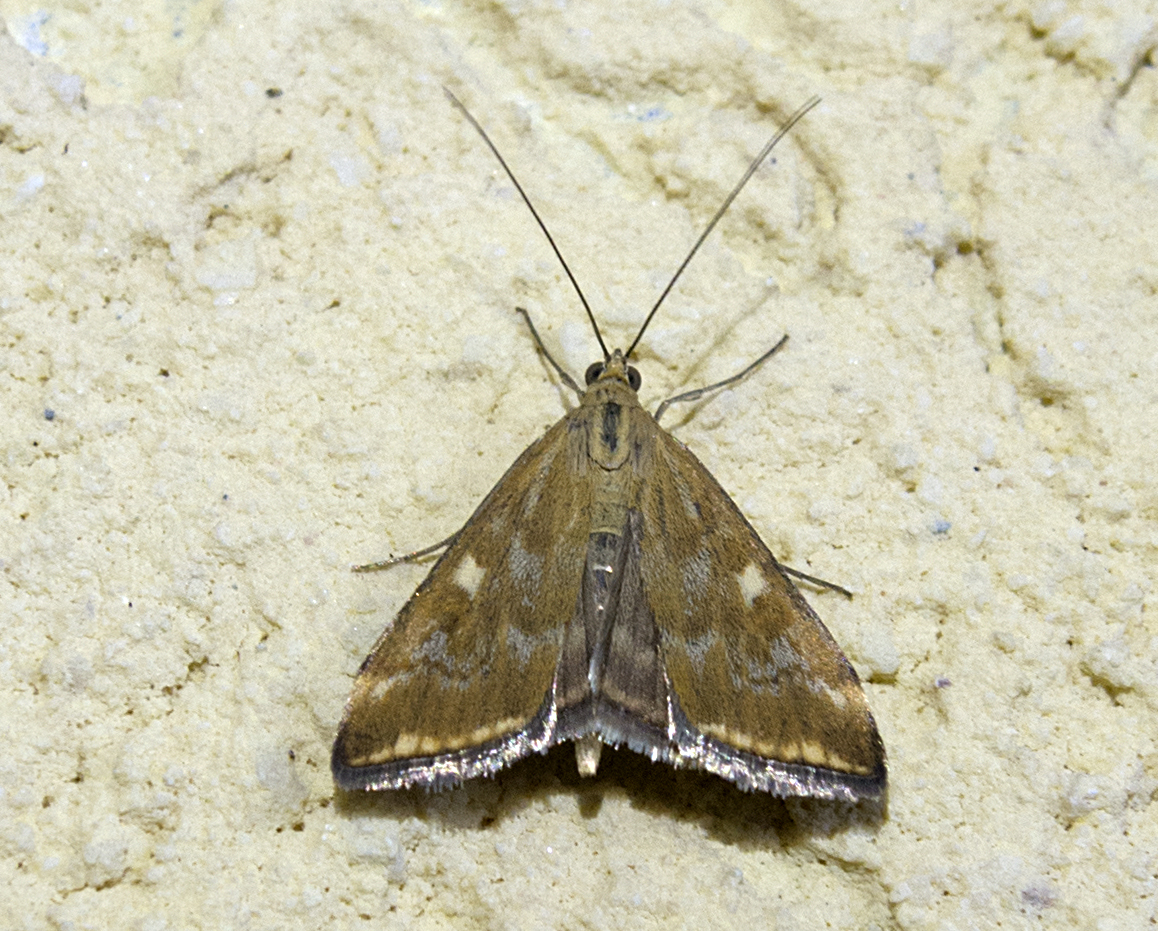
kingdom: Animalia
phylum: Arthropoda
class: Insecta
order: Lepidoptera
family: Crambidae
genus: Loxostege
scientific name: Loxostege sticticalis
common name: Crambid moth
